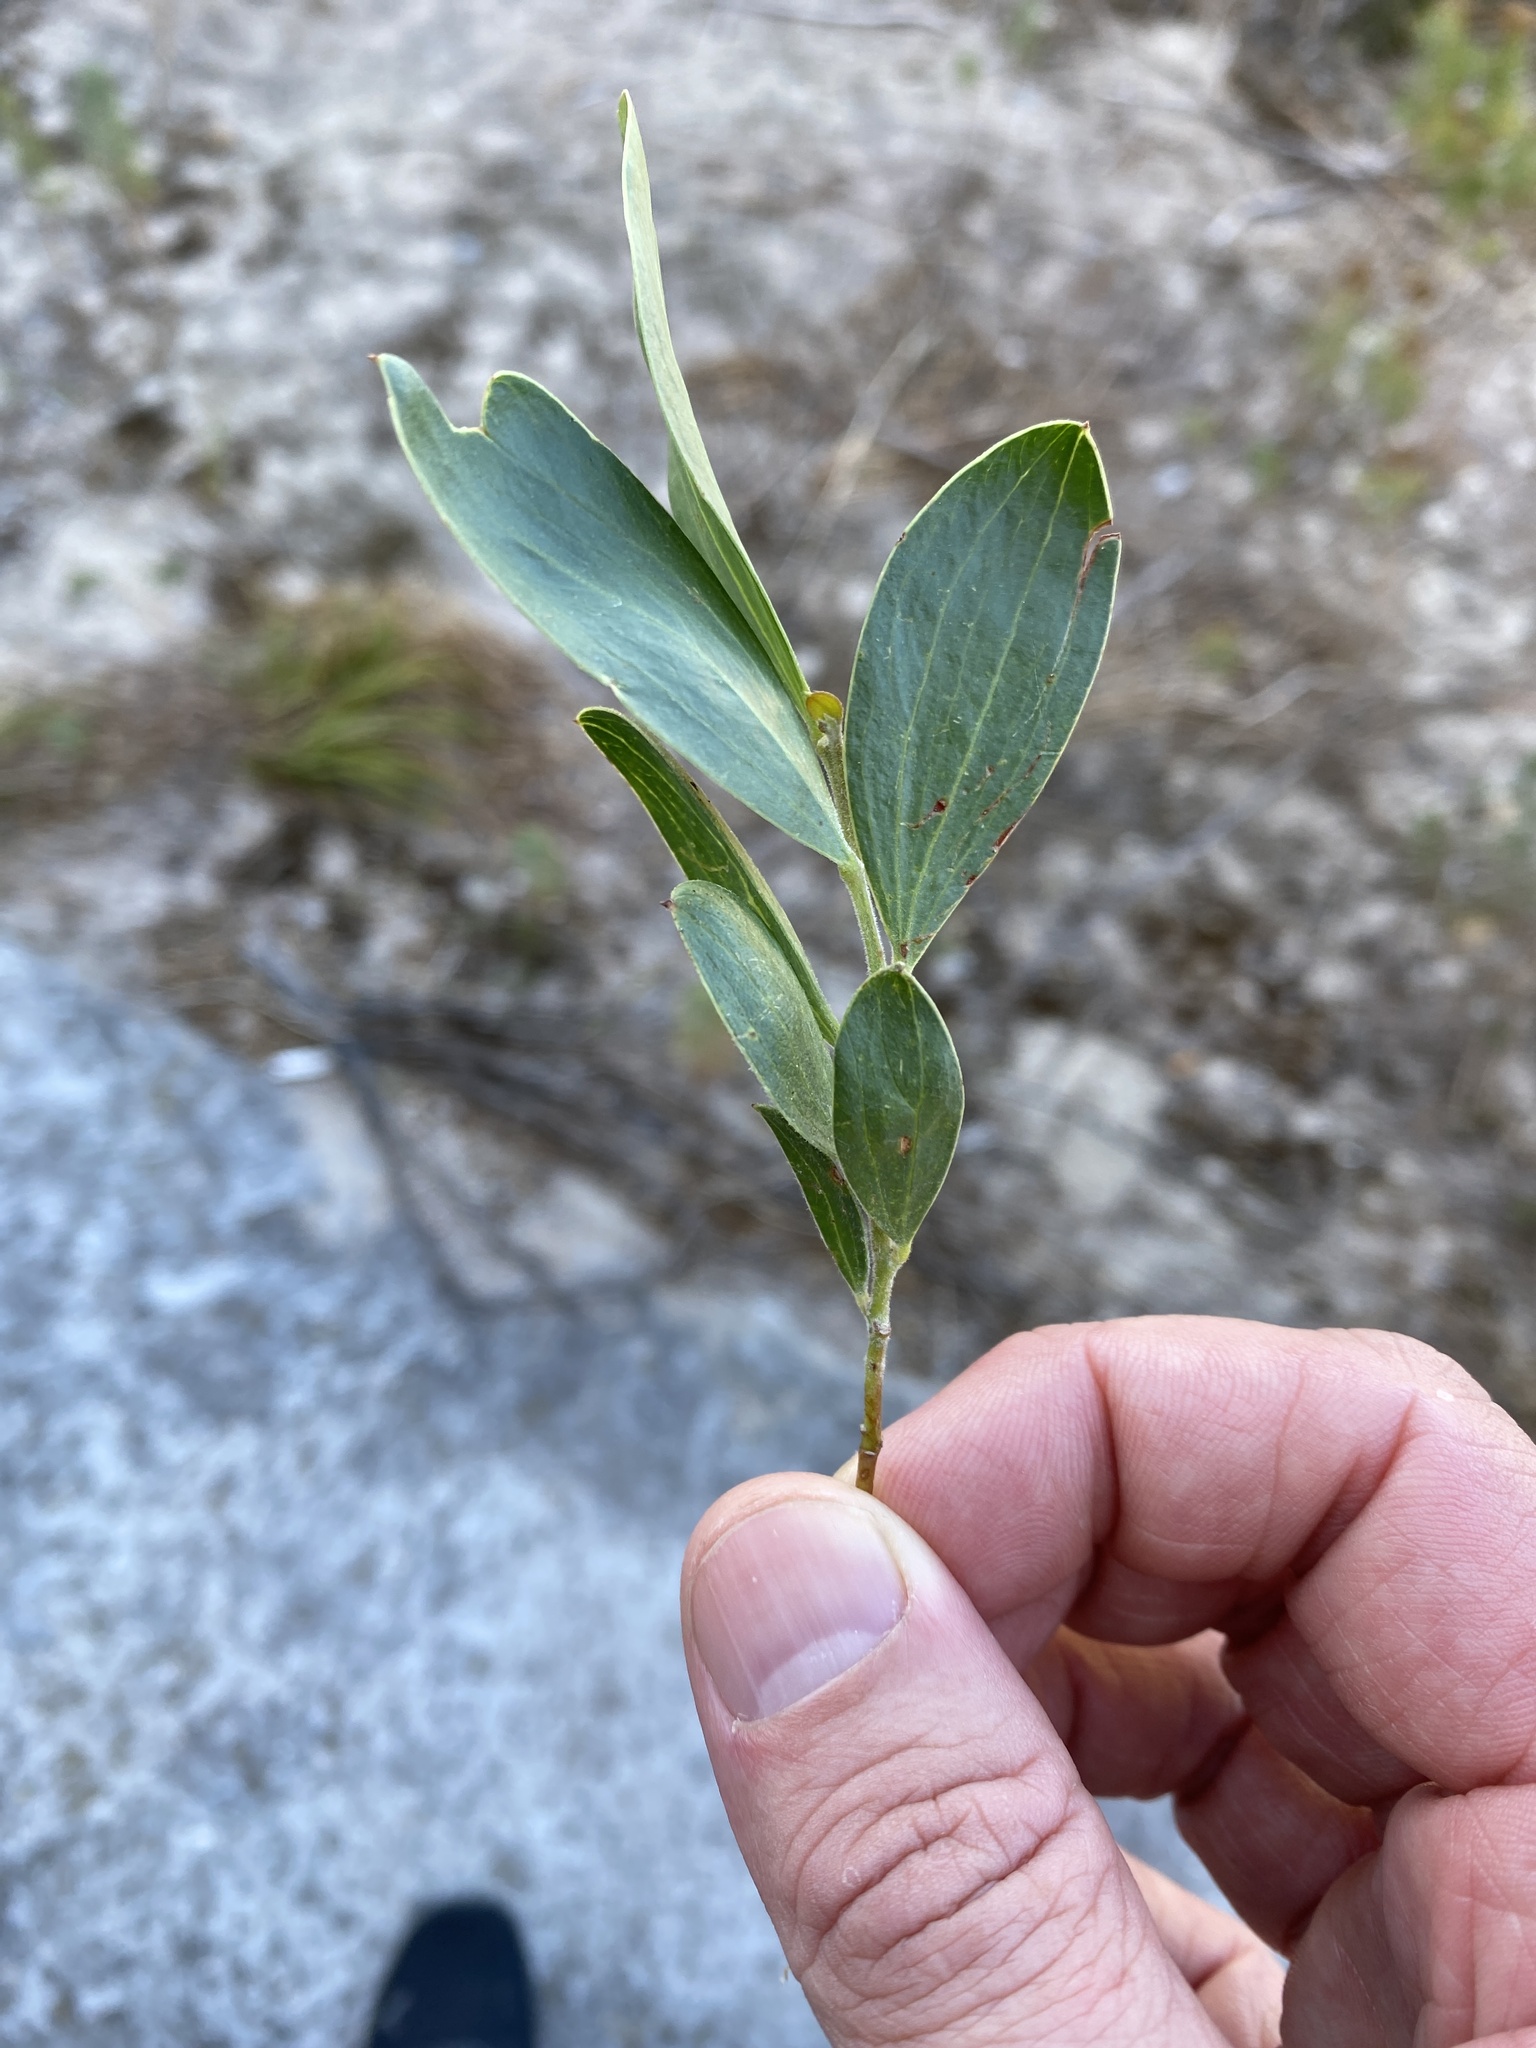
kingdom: Plantae
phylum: Tracheophyta
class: Magnoliopsida
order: Fabales
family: Fabaceae
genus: Acacia
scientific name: Acacia cyclops
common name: Coastal wattle
